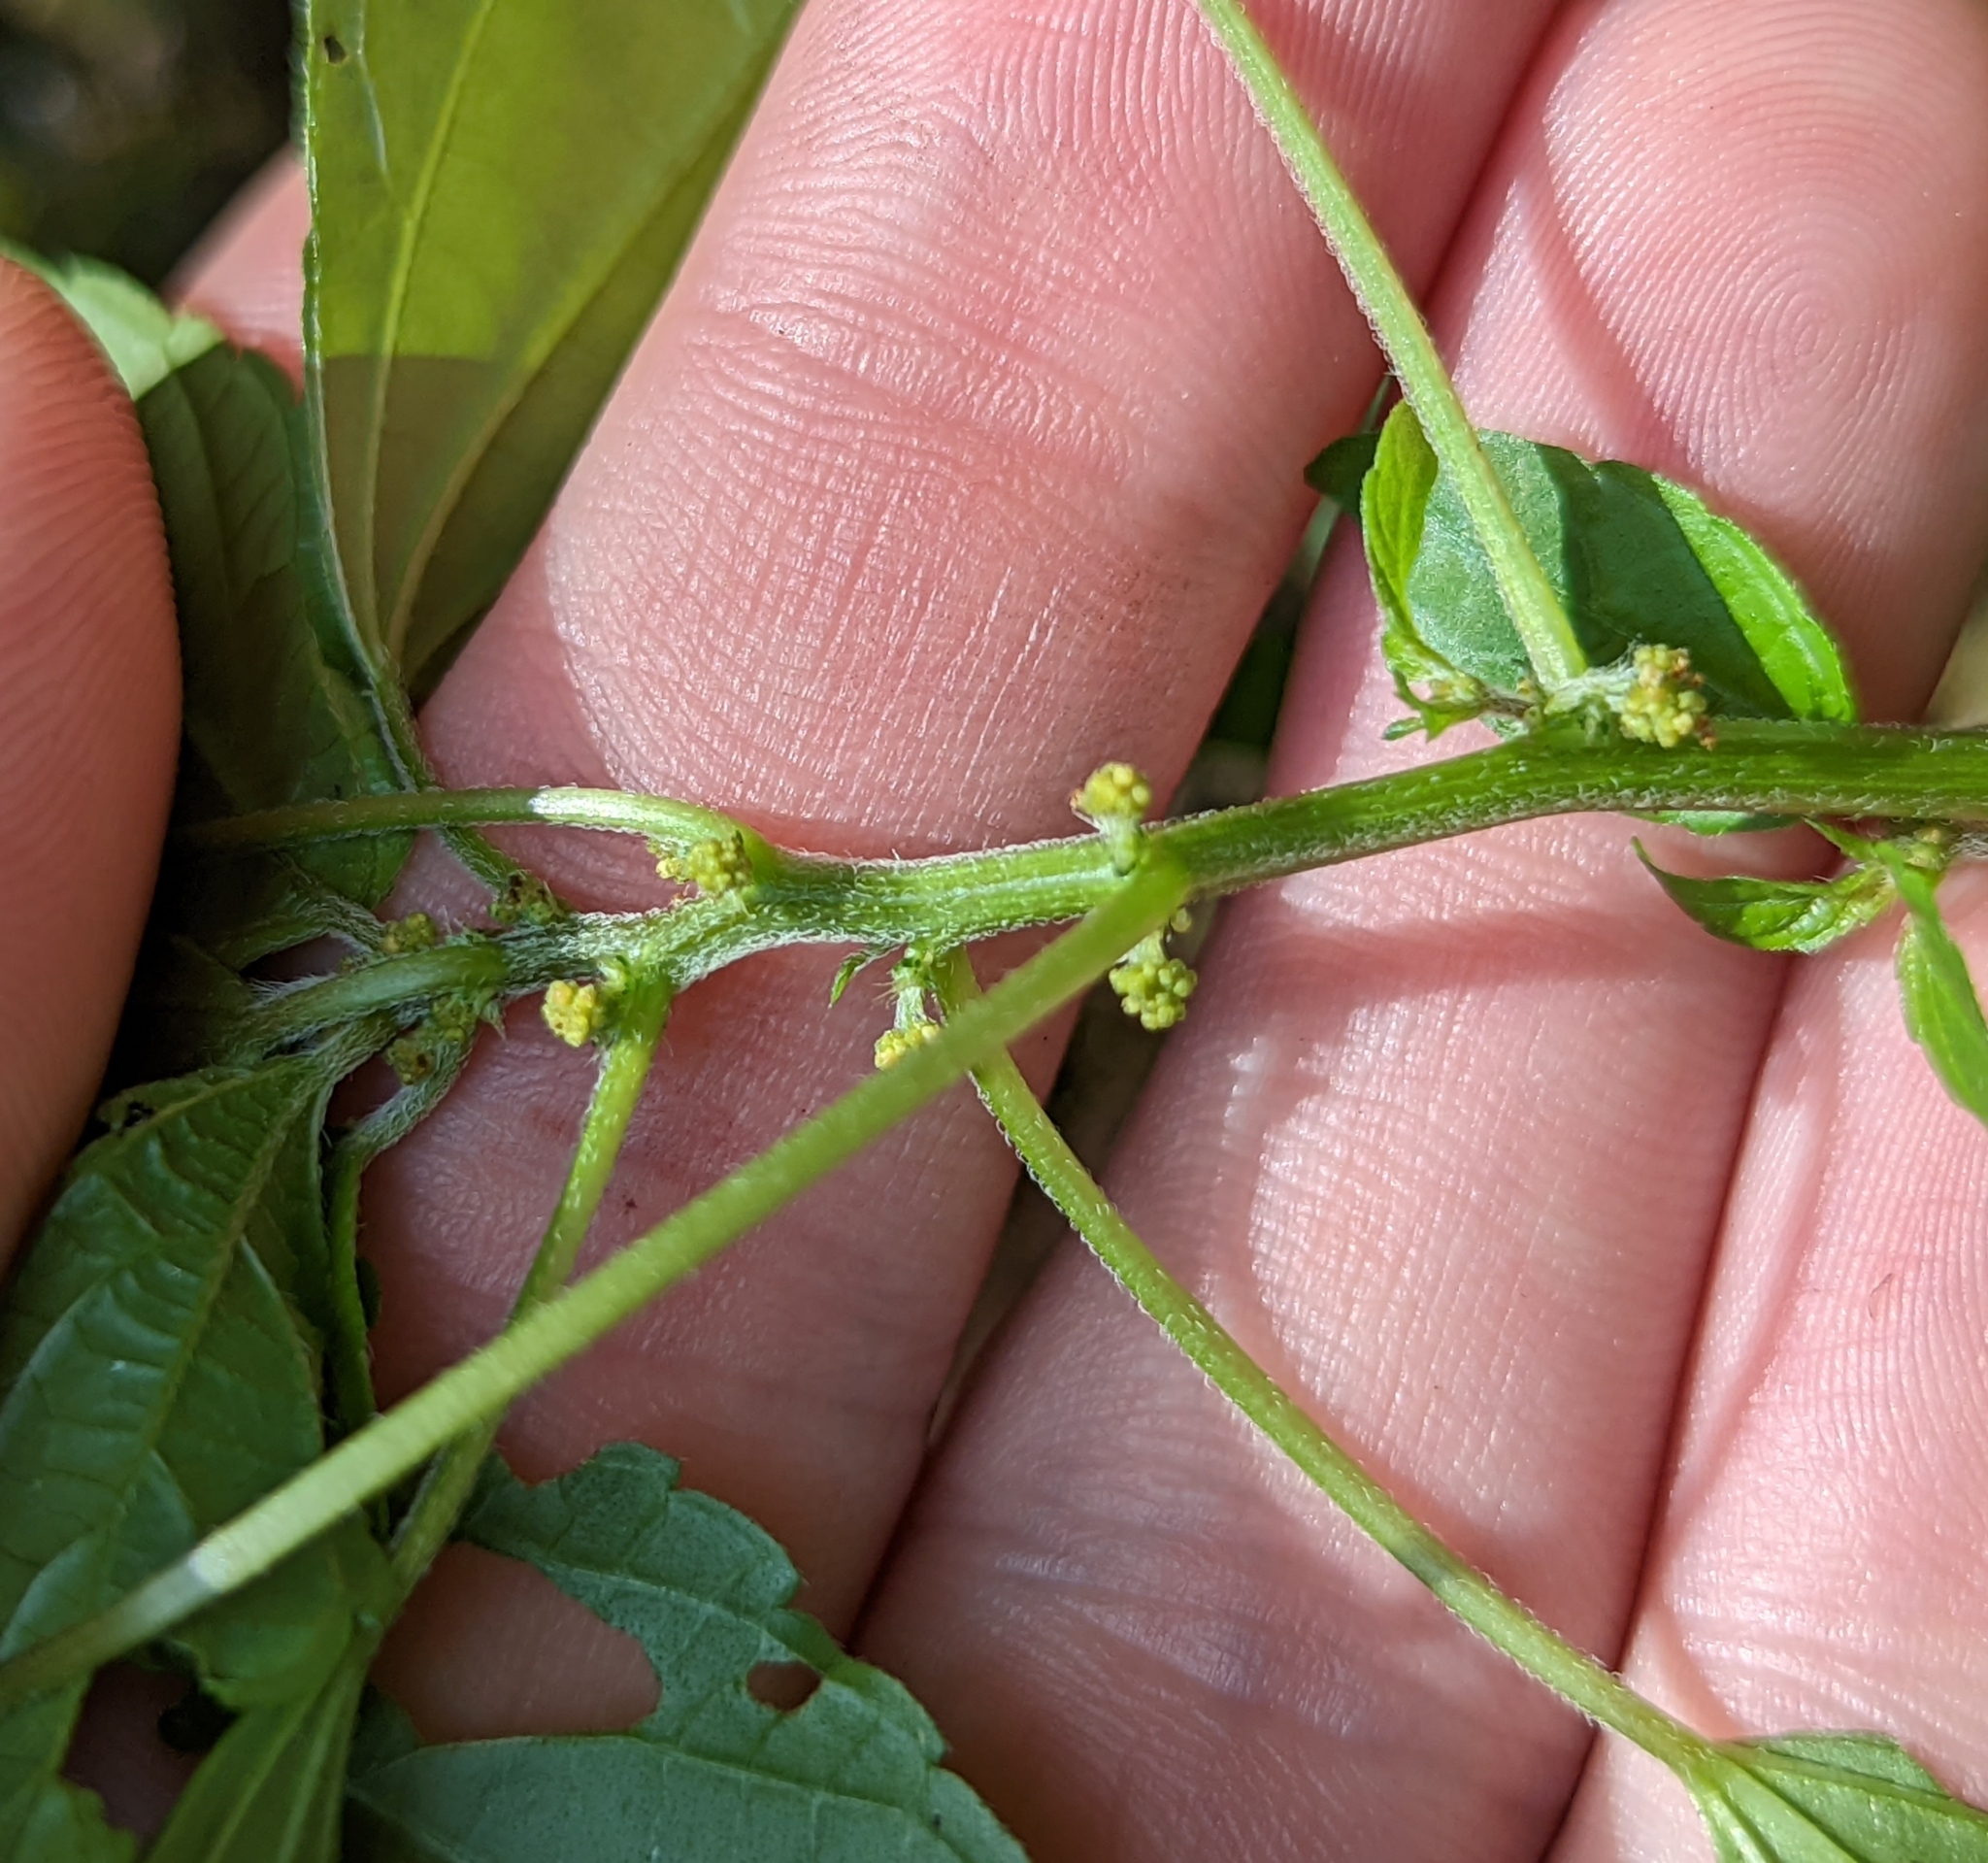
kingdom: Plantae
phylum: Tracheophyta
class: Magnoliopsida
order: Malpighiales
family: Euphorbiaceae
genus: Acalypha
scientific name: Acalypha rhomboidea
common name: Rhombic copperleaf
